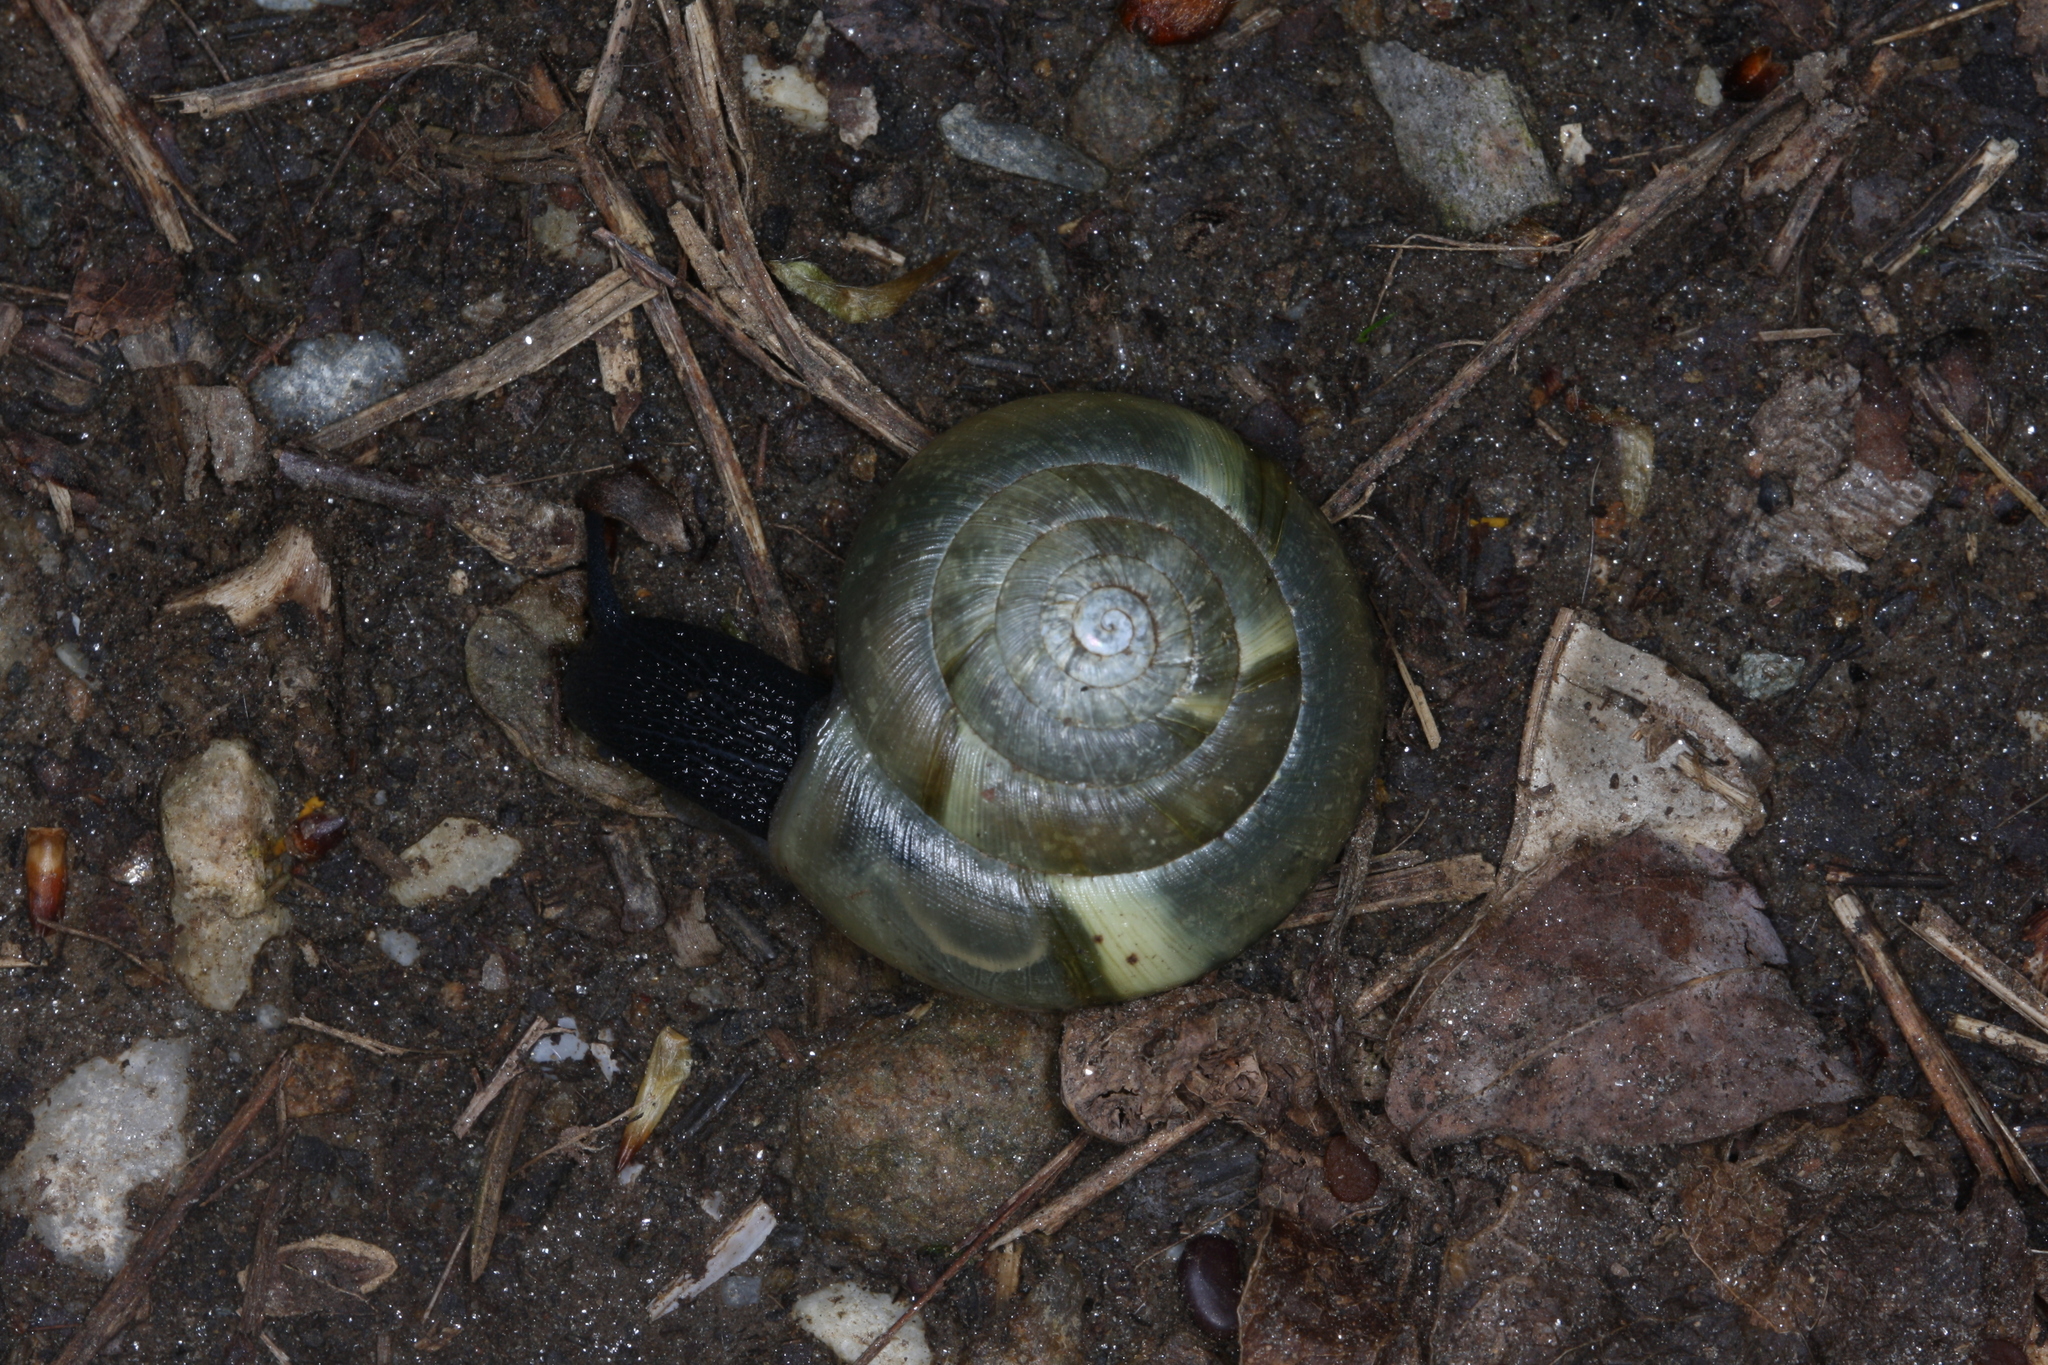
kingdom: Animalia
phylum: Mollusca
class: Gastropoda
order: Stylommatophora
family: Zonitidae
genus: Aegopis
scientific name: Aegopis verticillus
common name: Giant glass snail
